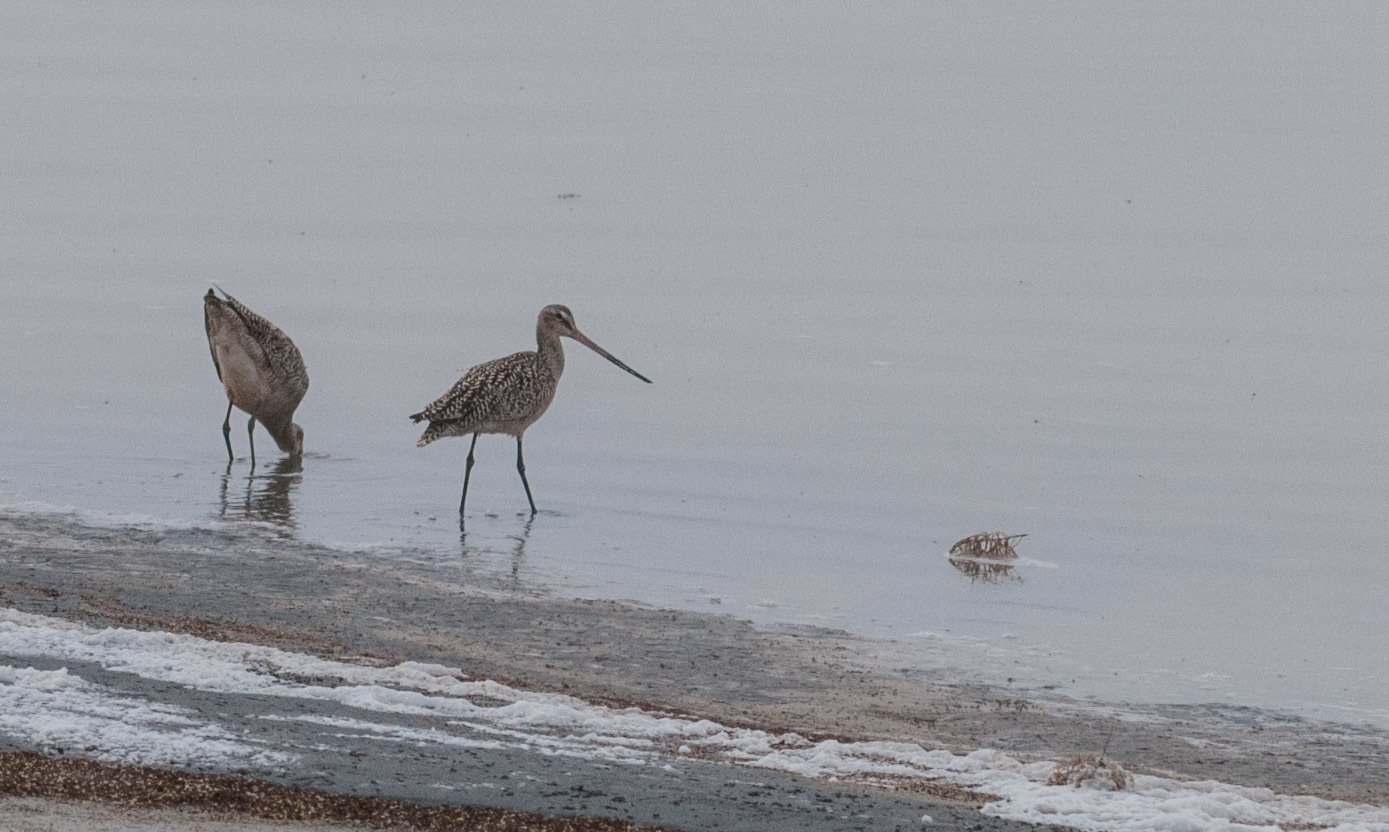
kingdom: Animalia
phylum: Chordata
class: Aves
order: Charadriiformes
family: Scolopacidae
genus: Limosa
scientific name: Limosa fedoa
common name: Marbled godwit
